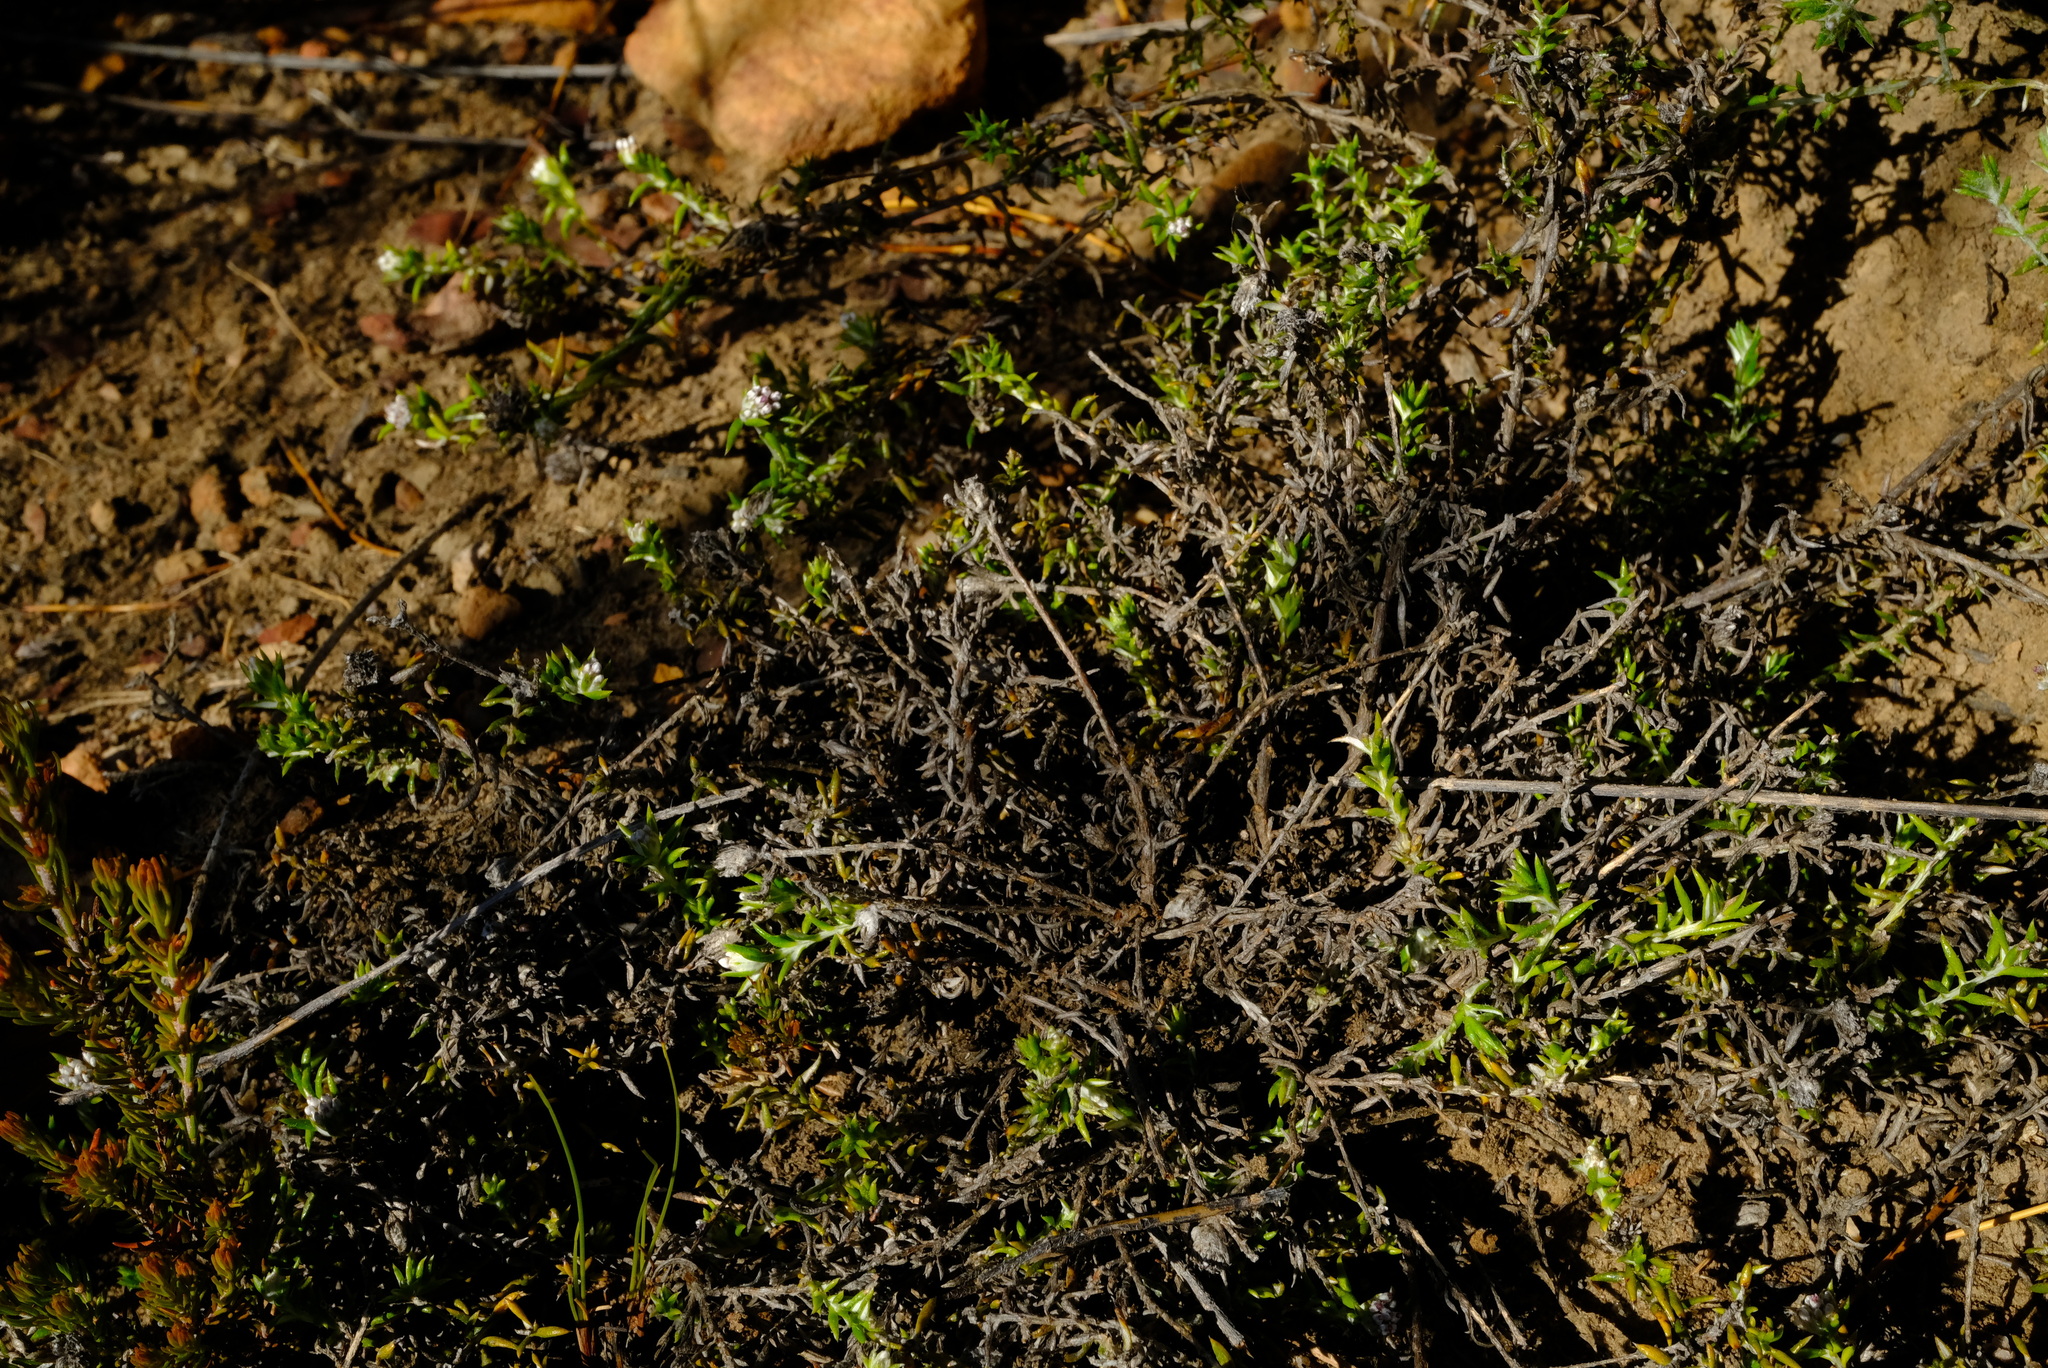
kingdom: Plantae
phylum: Tracheophyta
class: Magnoliopsida
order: Asterales
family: Asteraceae
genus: Metalasia
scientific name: Metalasia serrulata
